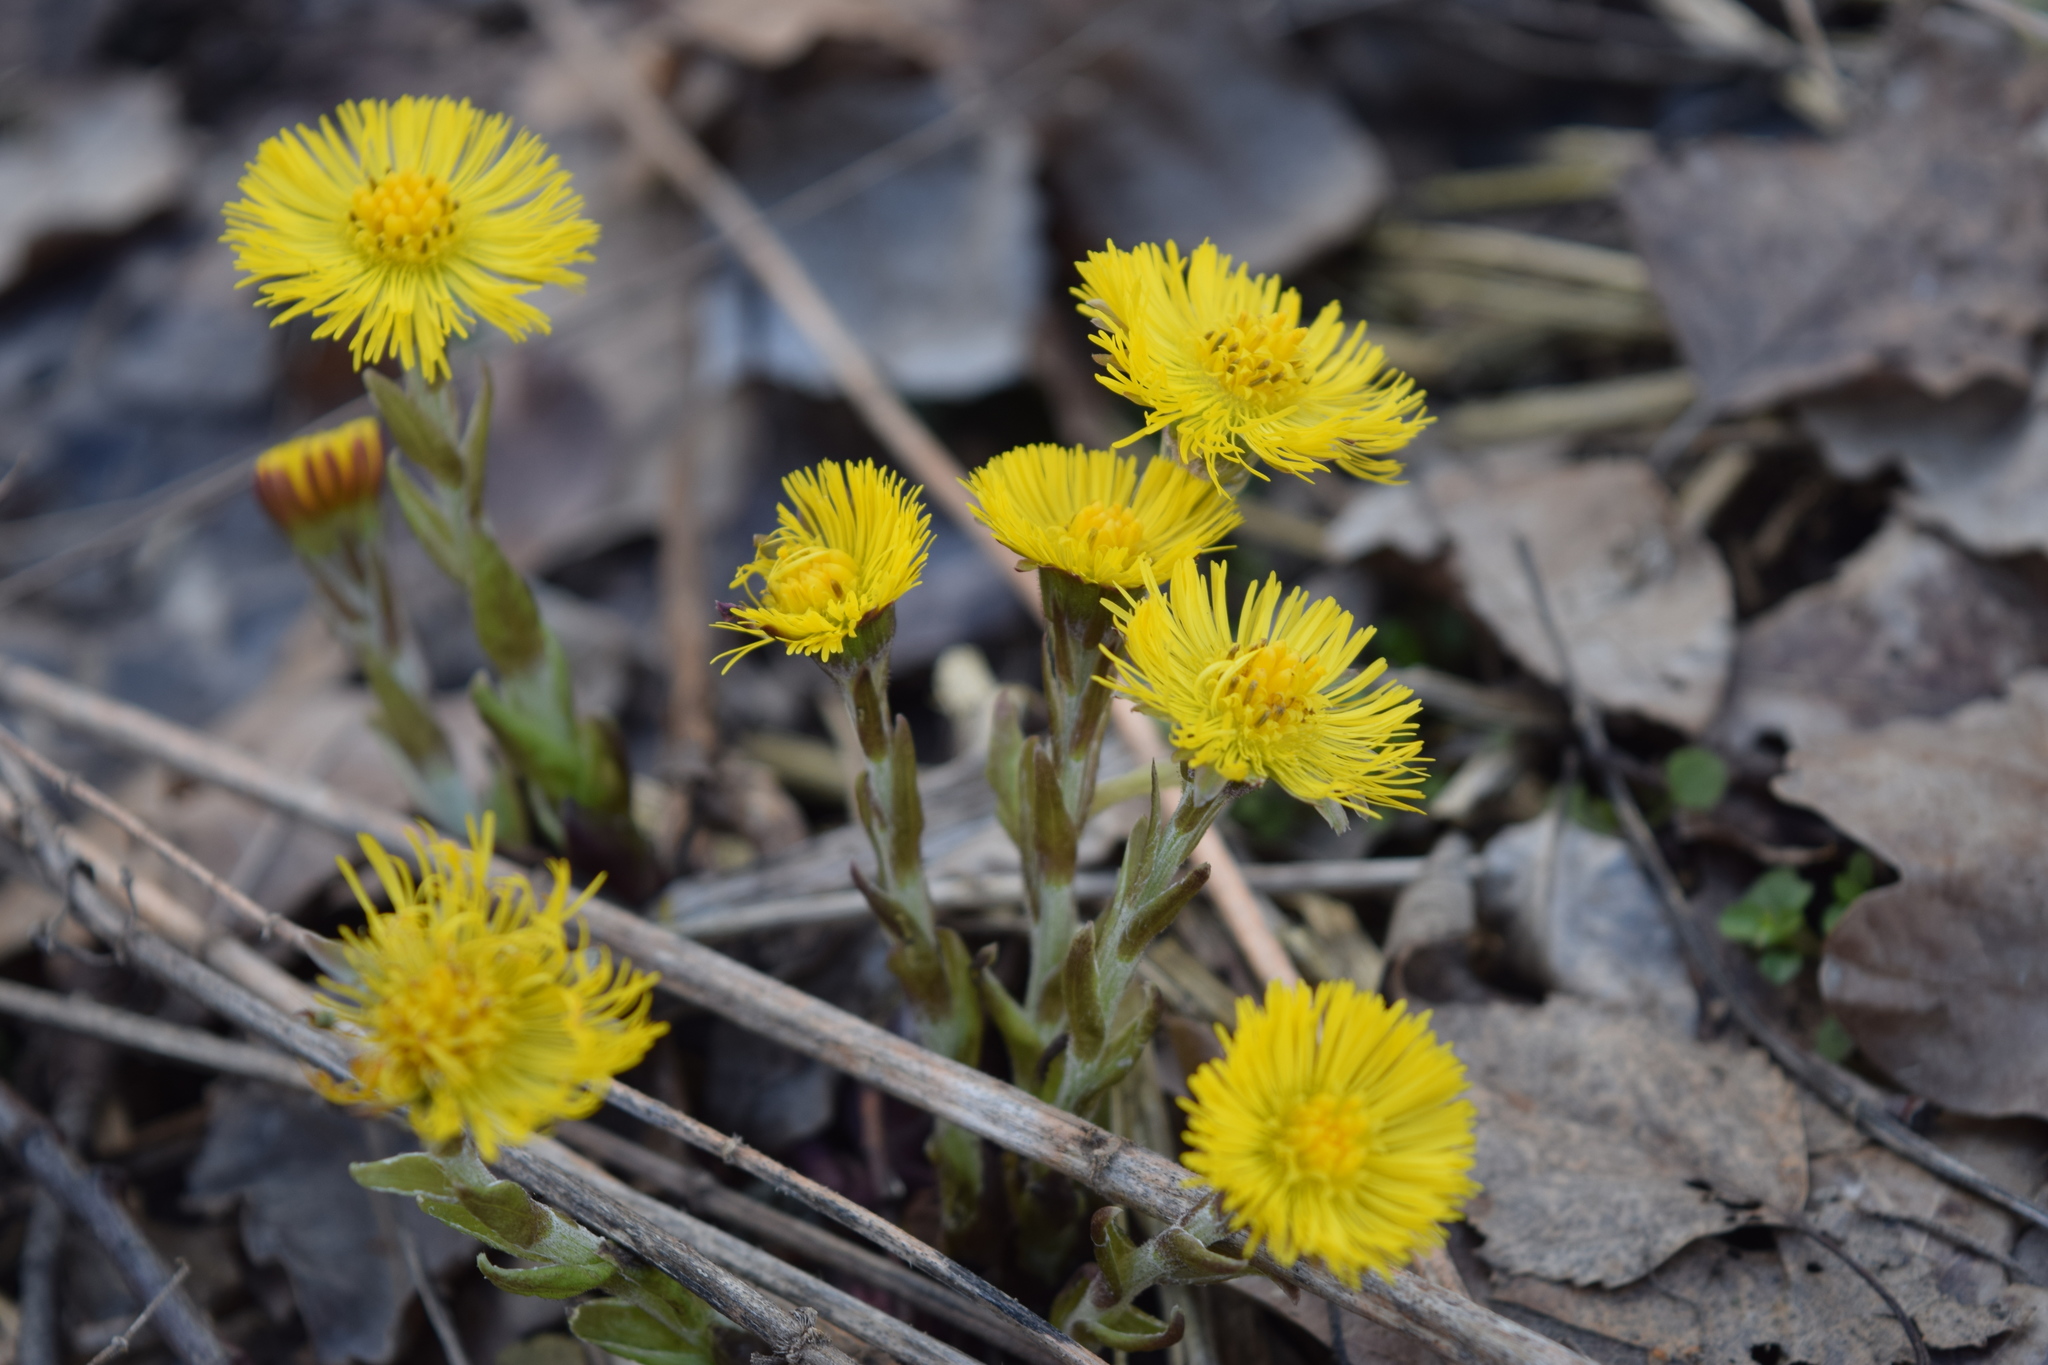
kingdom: Plantae
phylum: Tracheophyta
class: Magnoliopsida
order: Asterales
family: Asteraceae
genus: Tussilago
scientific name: Tussilago farfara
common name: Coltsfoot
